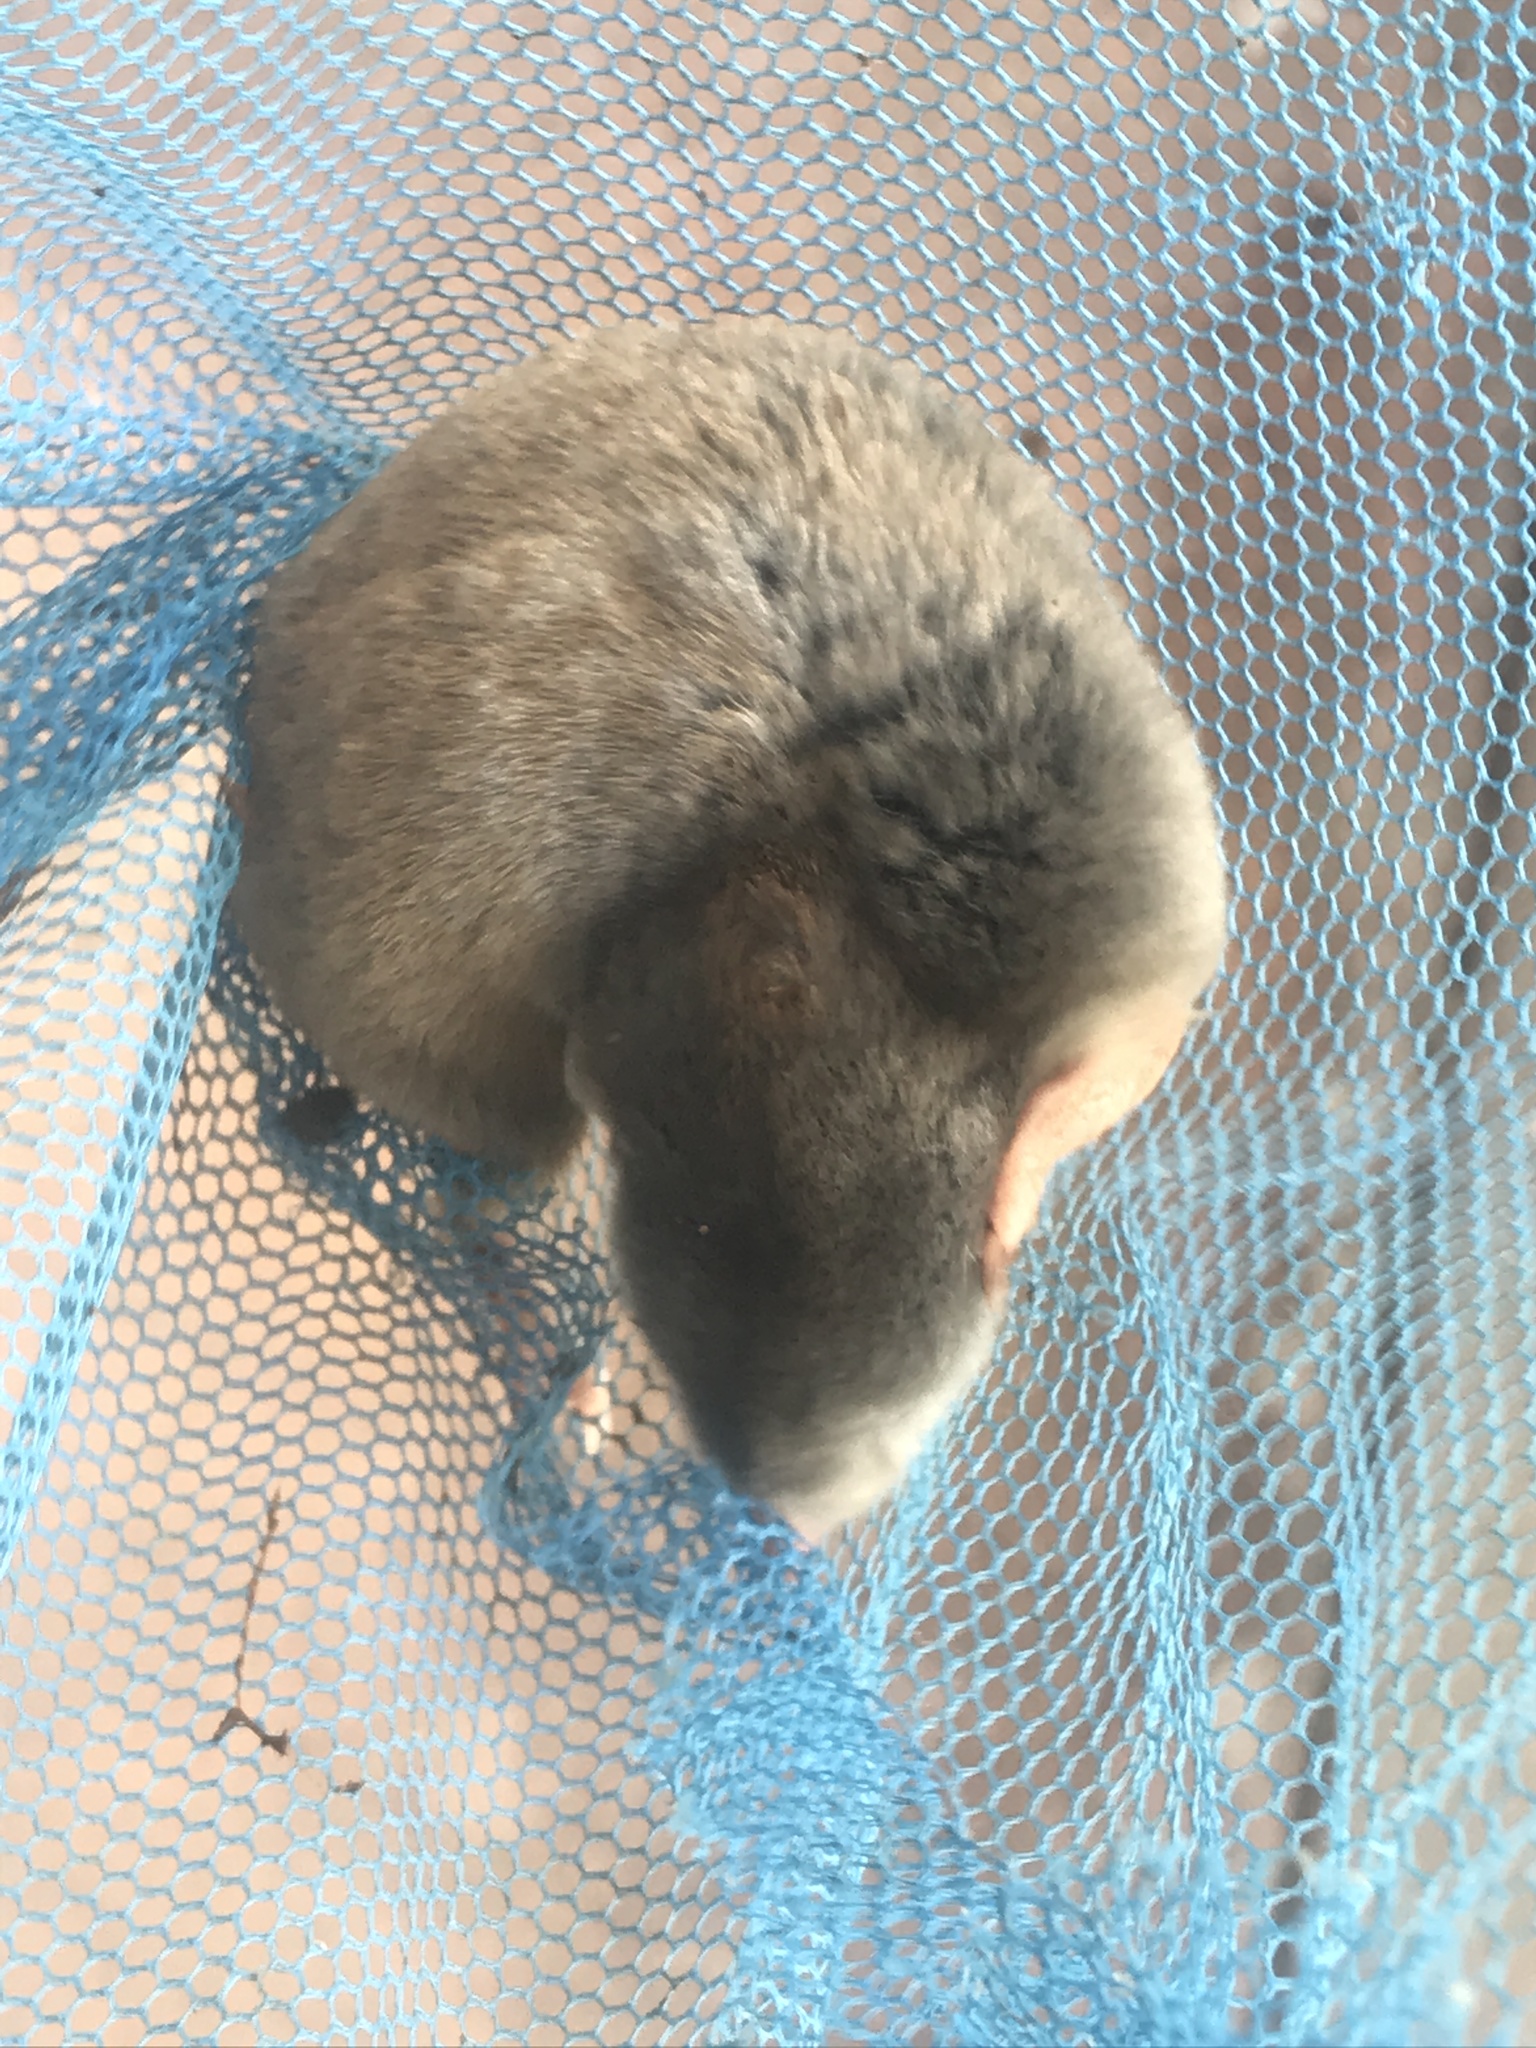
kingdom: Animalia
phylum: Chordata
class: Mammalia
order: Soricomorpha
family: Talpidae
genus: Scalopus
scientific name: Scalopus aquaticus
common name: Eastern mole
